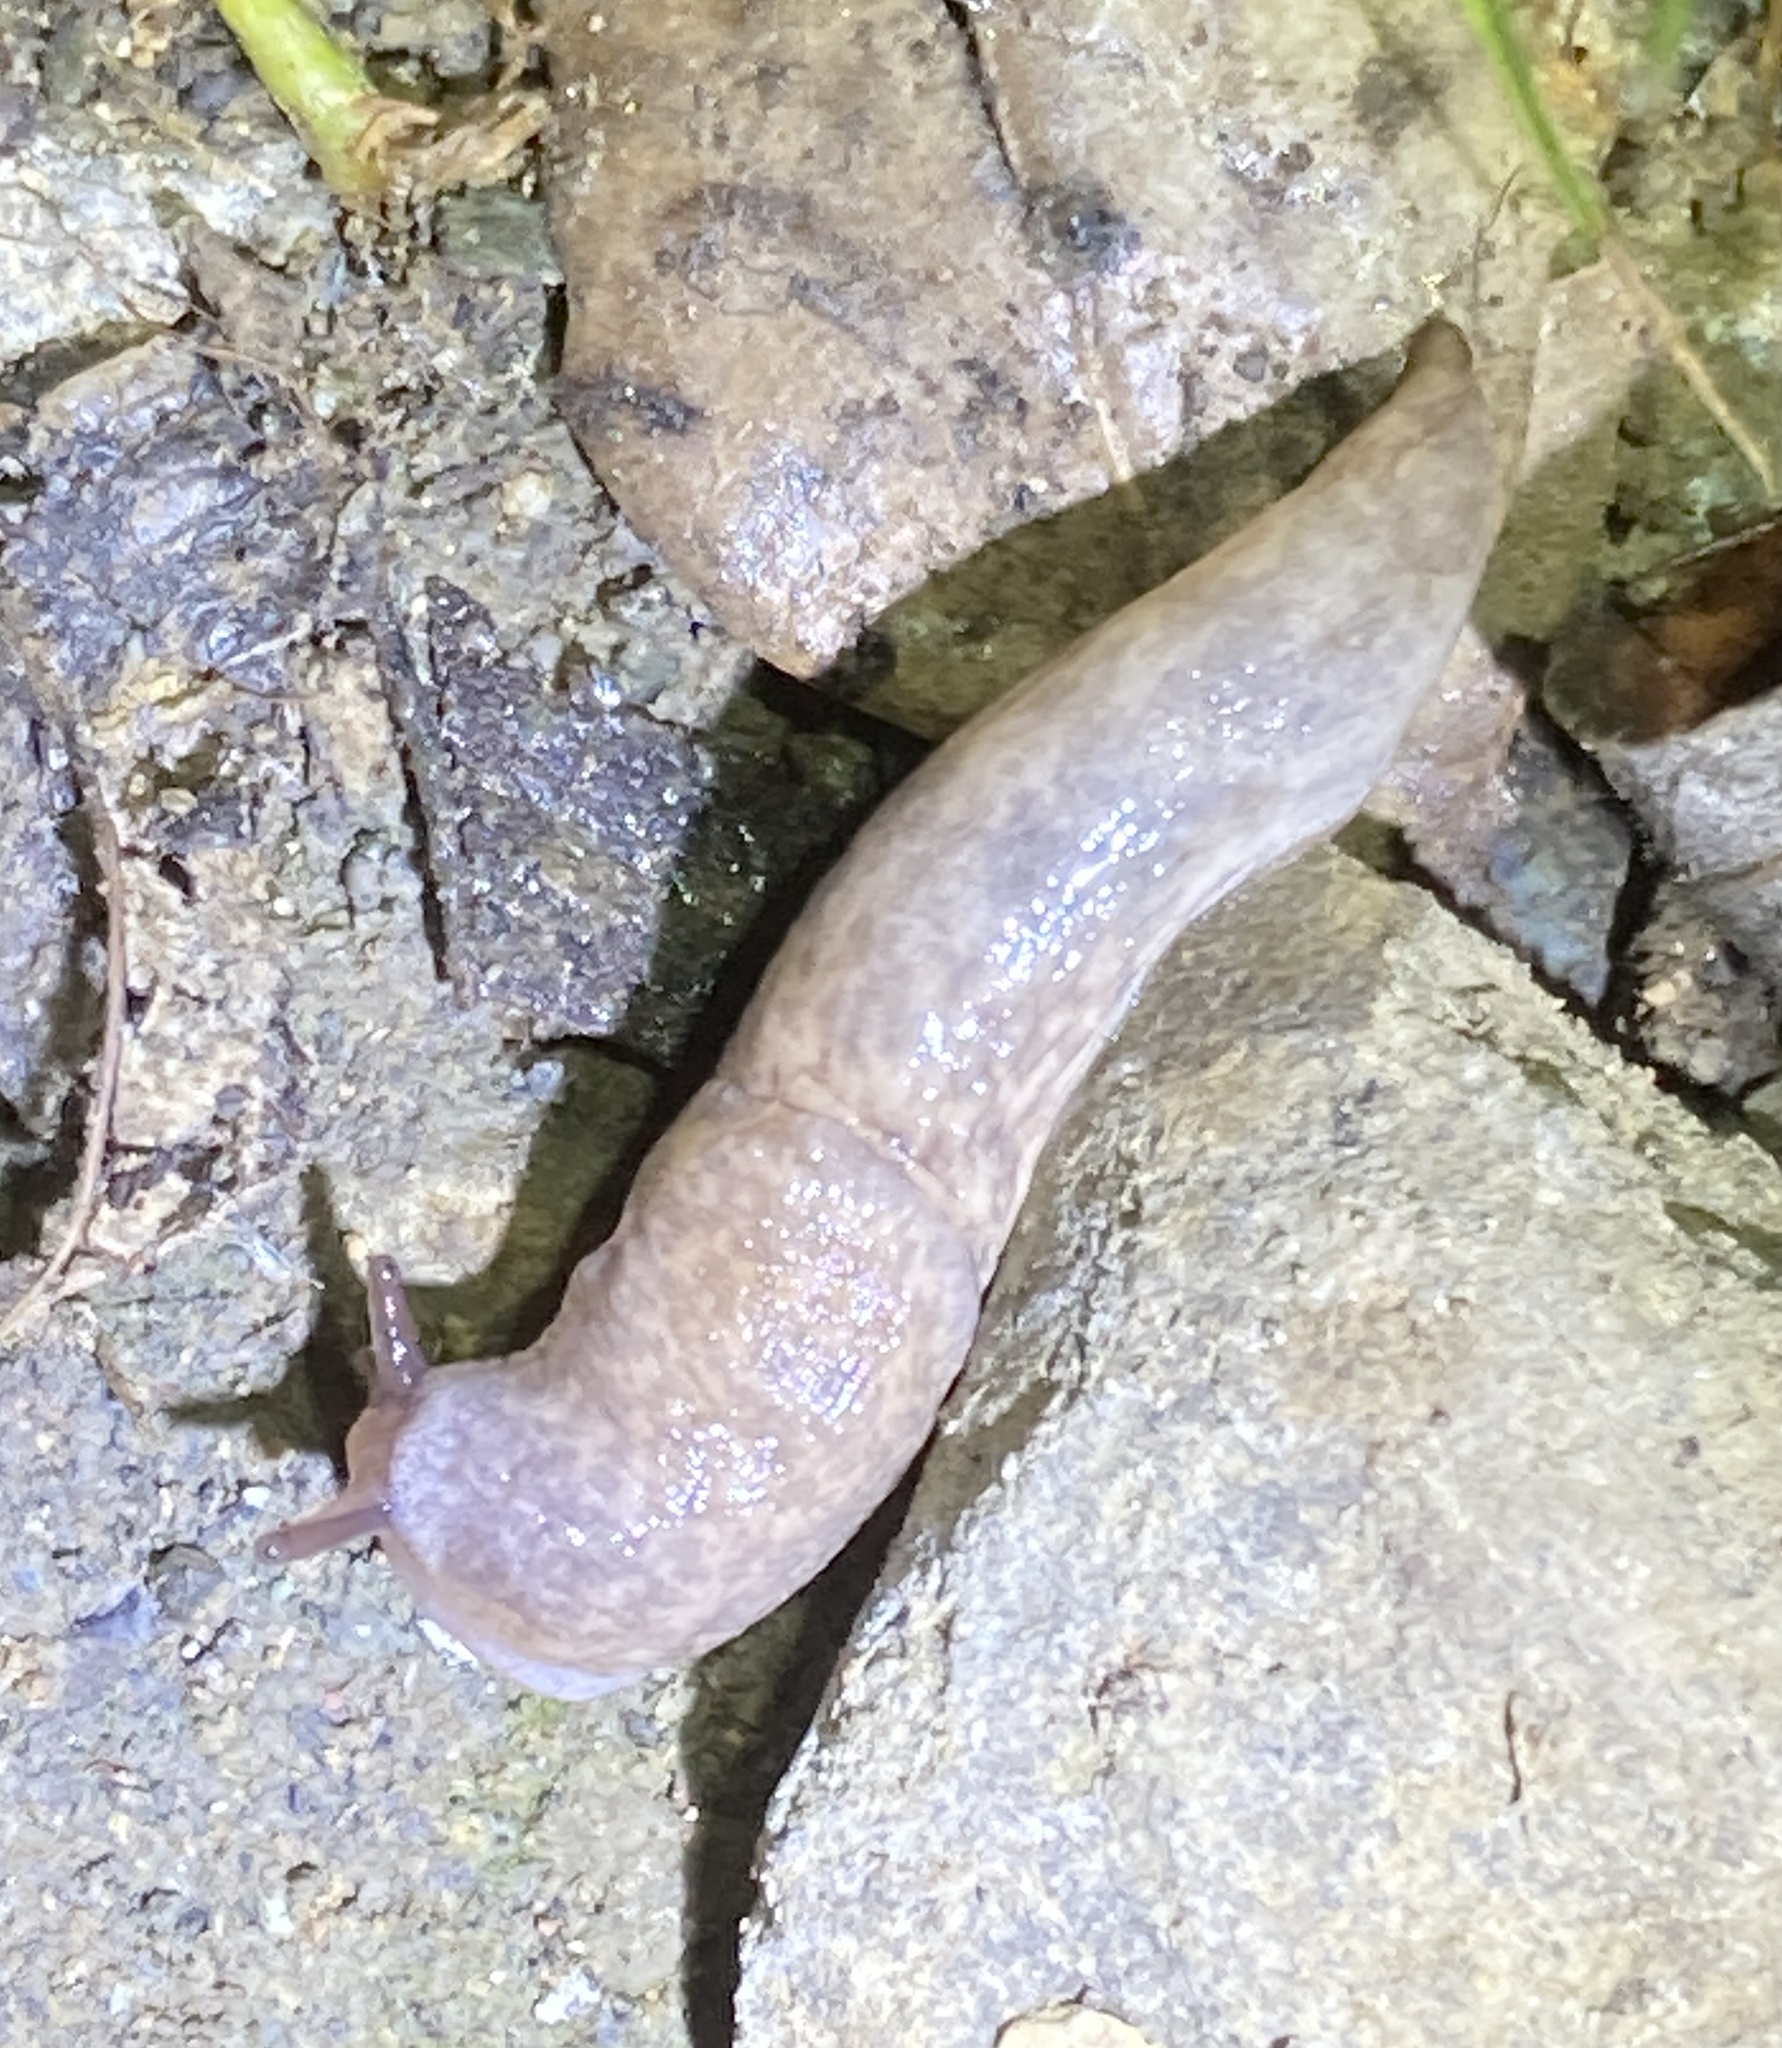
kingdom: Animalia
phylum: Mollusca
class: Gastropoda
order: Stylommatophora
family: Agriolimacidae
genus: Deroceras
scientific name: Deroceras reticulatum
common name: Gray field slug
